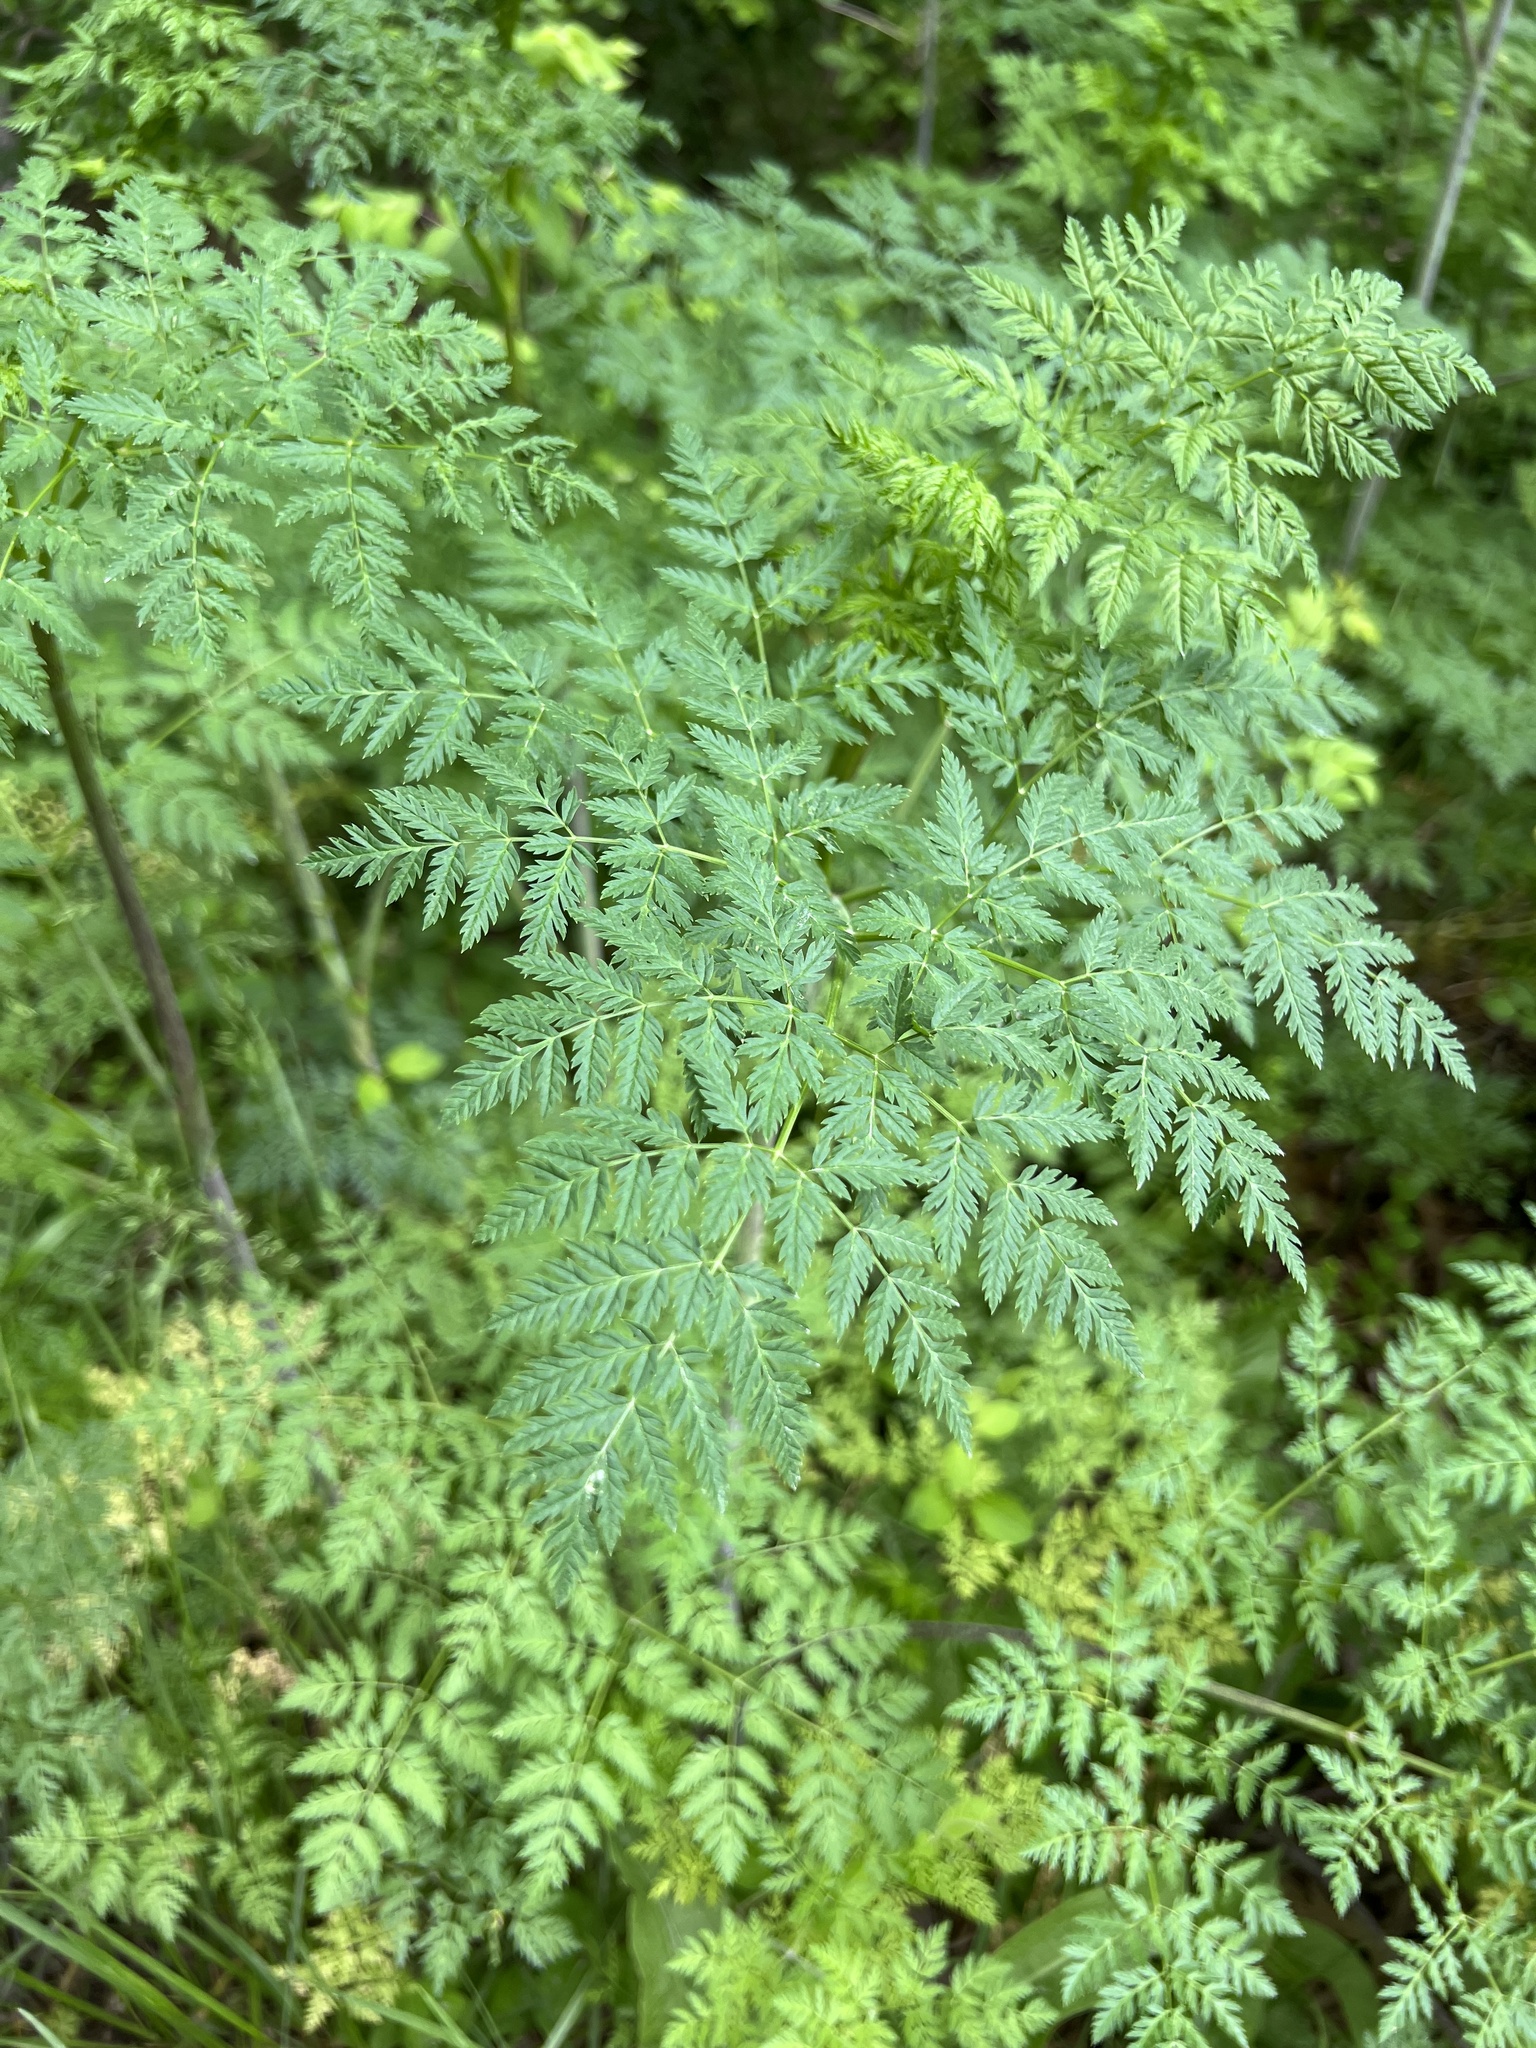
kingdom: Plantae
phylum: Tracheophyta
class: Magnoliopsida
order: Boraginales
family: Hydrophyllaceae
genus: Hydrophyllum
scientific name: Hydrophyllum appendiculatum
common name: Appendaged waterleaf
